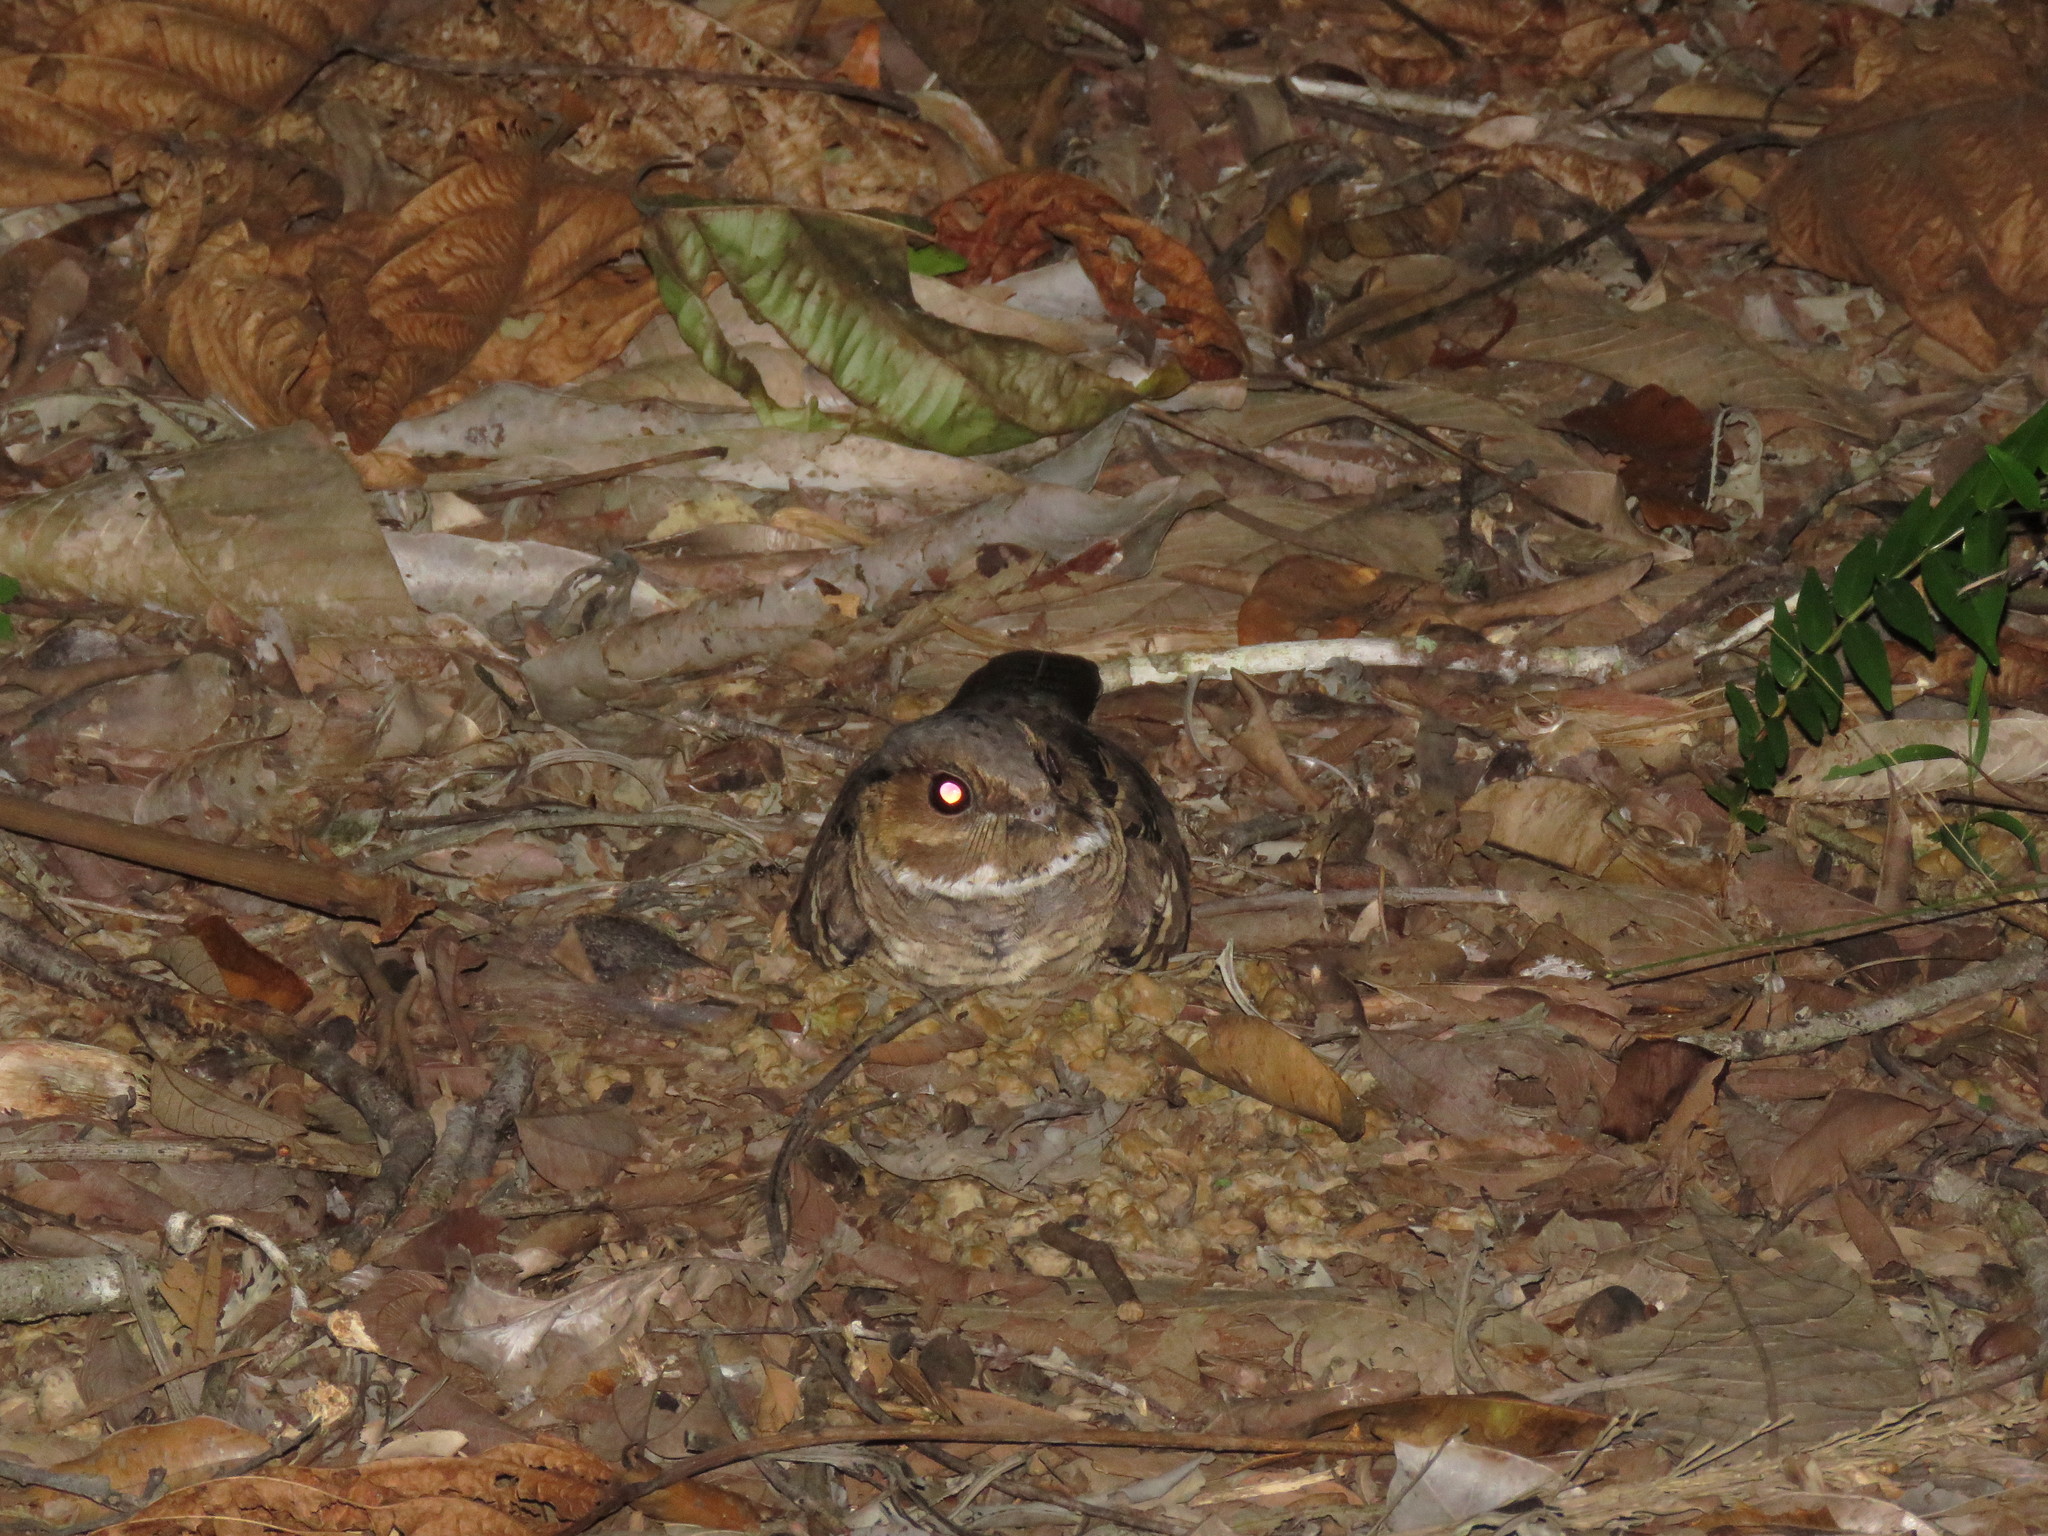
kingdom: Animalia
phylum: Chordata
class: Aves
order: Caprimulgiformes
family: Caprimulgidae
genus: Nyctidromus
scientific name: Nyctidromus albicollis
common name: Pauraque
